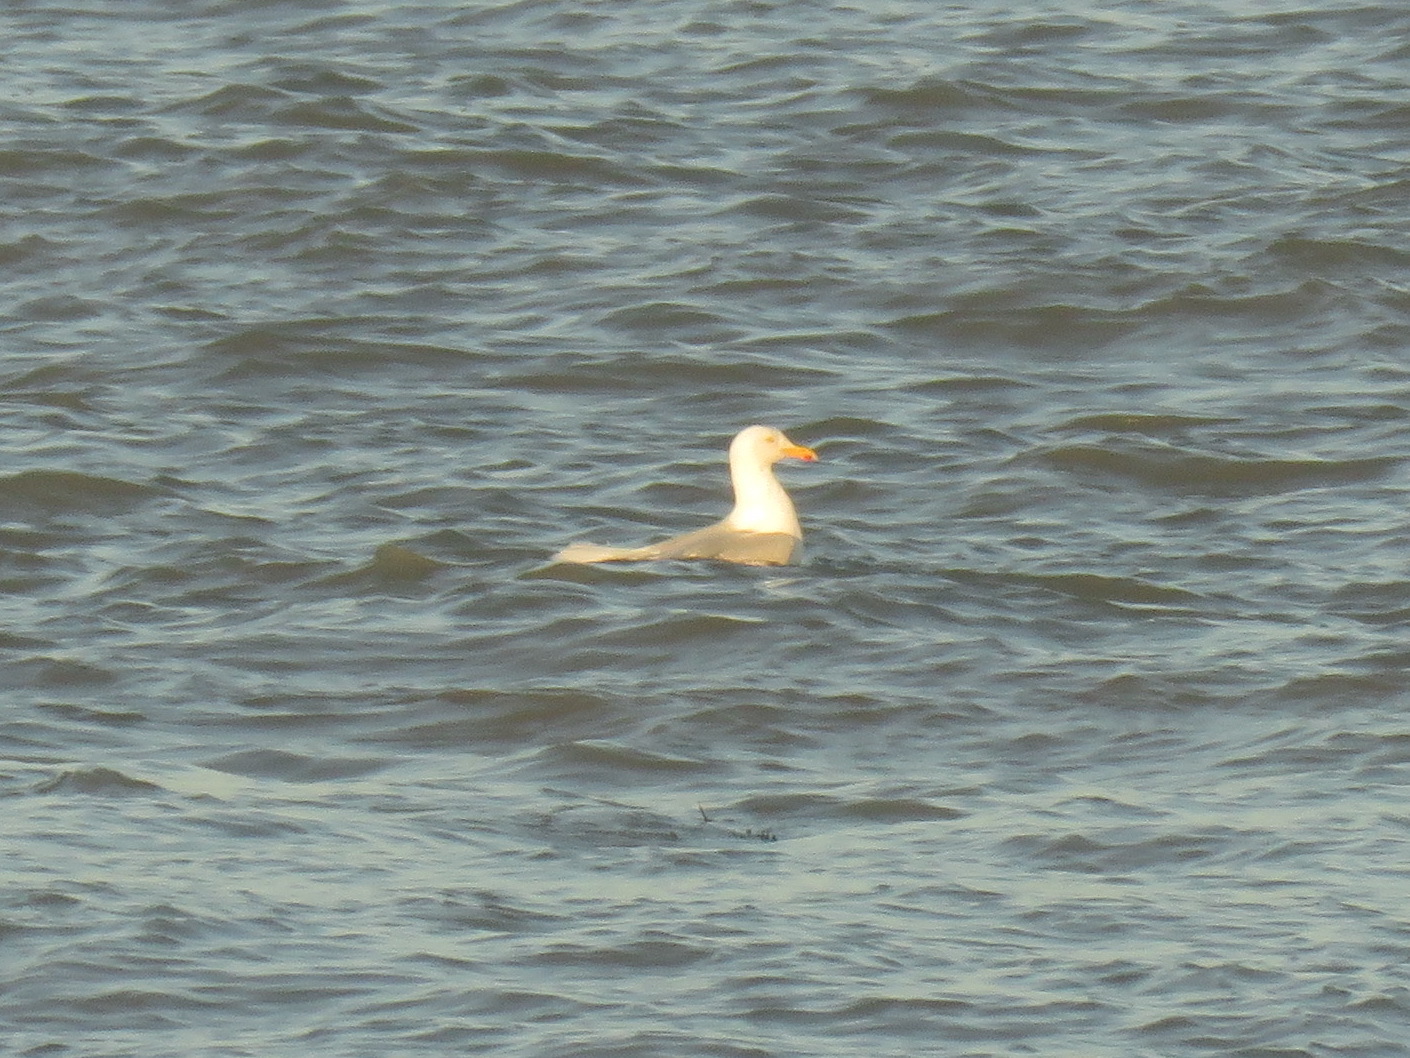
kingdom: Animalia
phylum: Chordata
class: Aves
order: Charadriiformes
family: Laridae
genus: Larus
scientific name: Larus argentatus
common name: Herring gull
